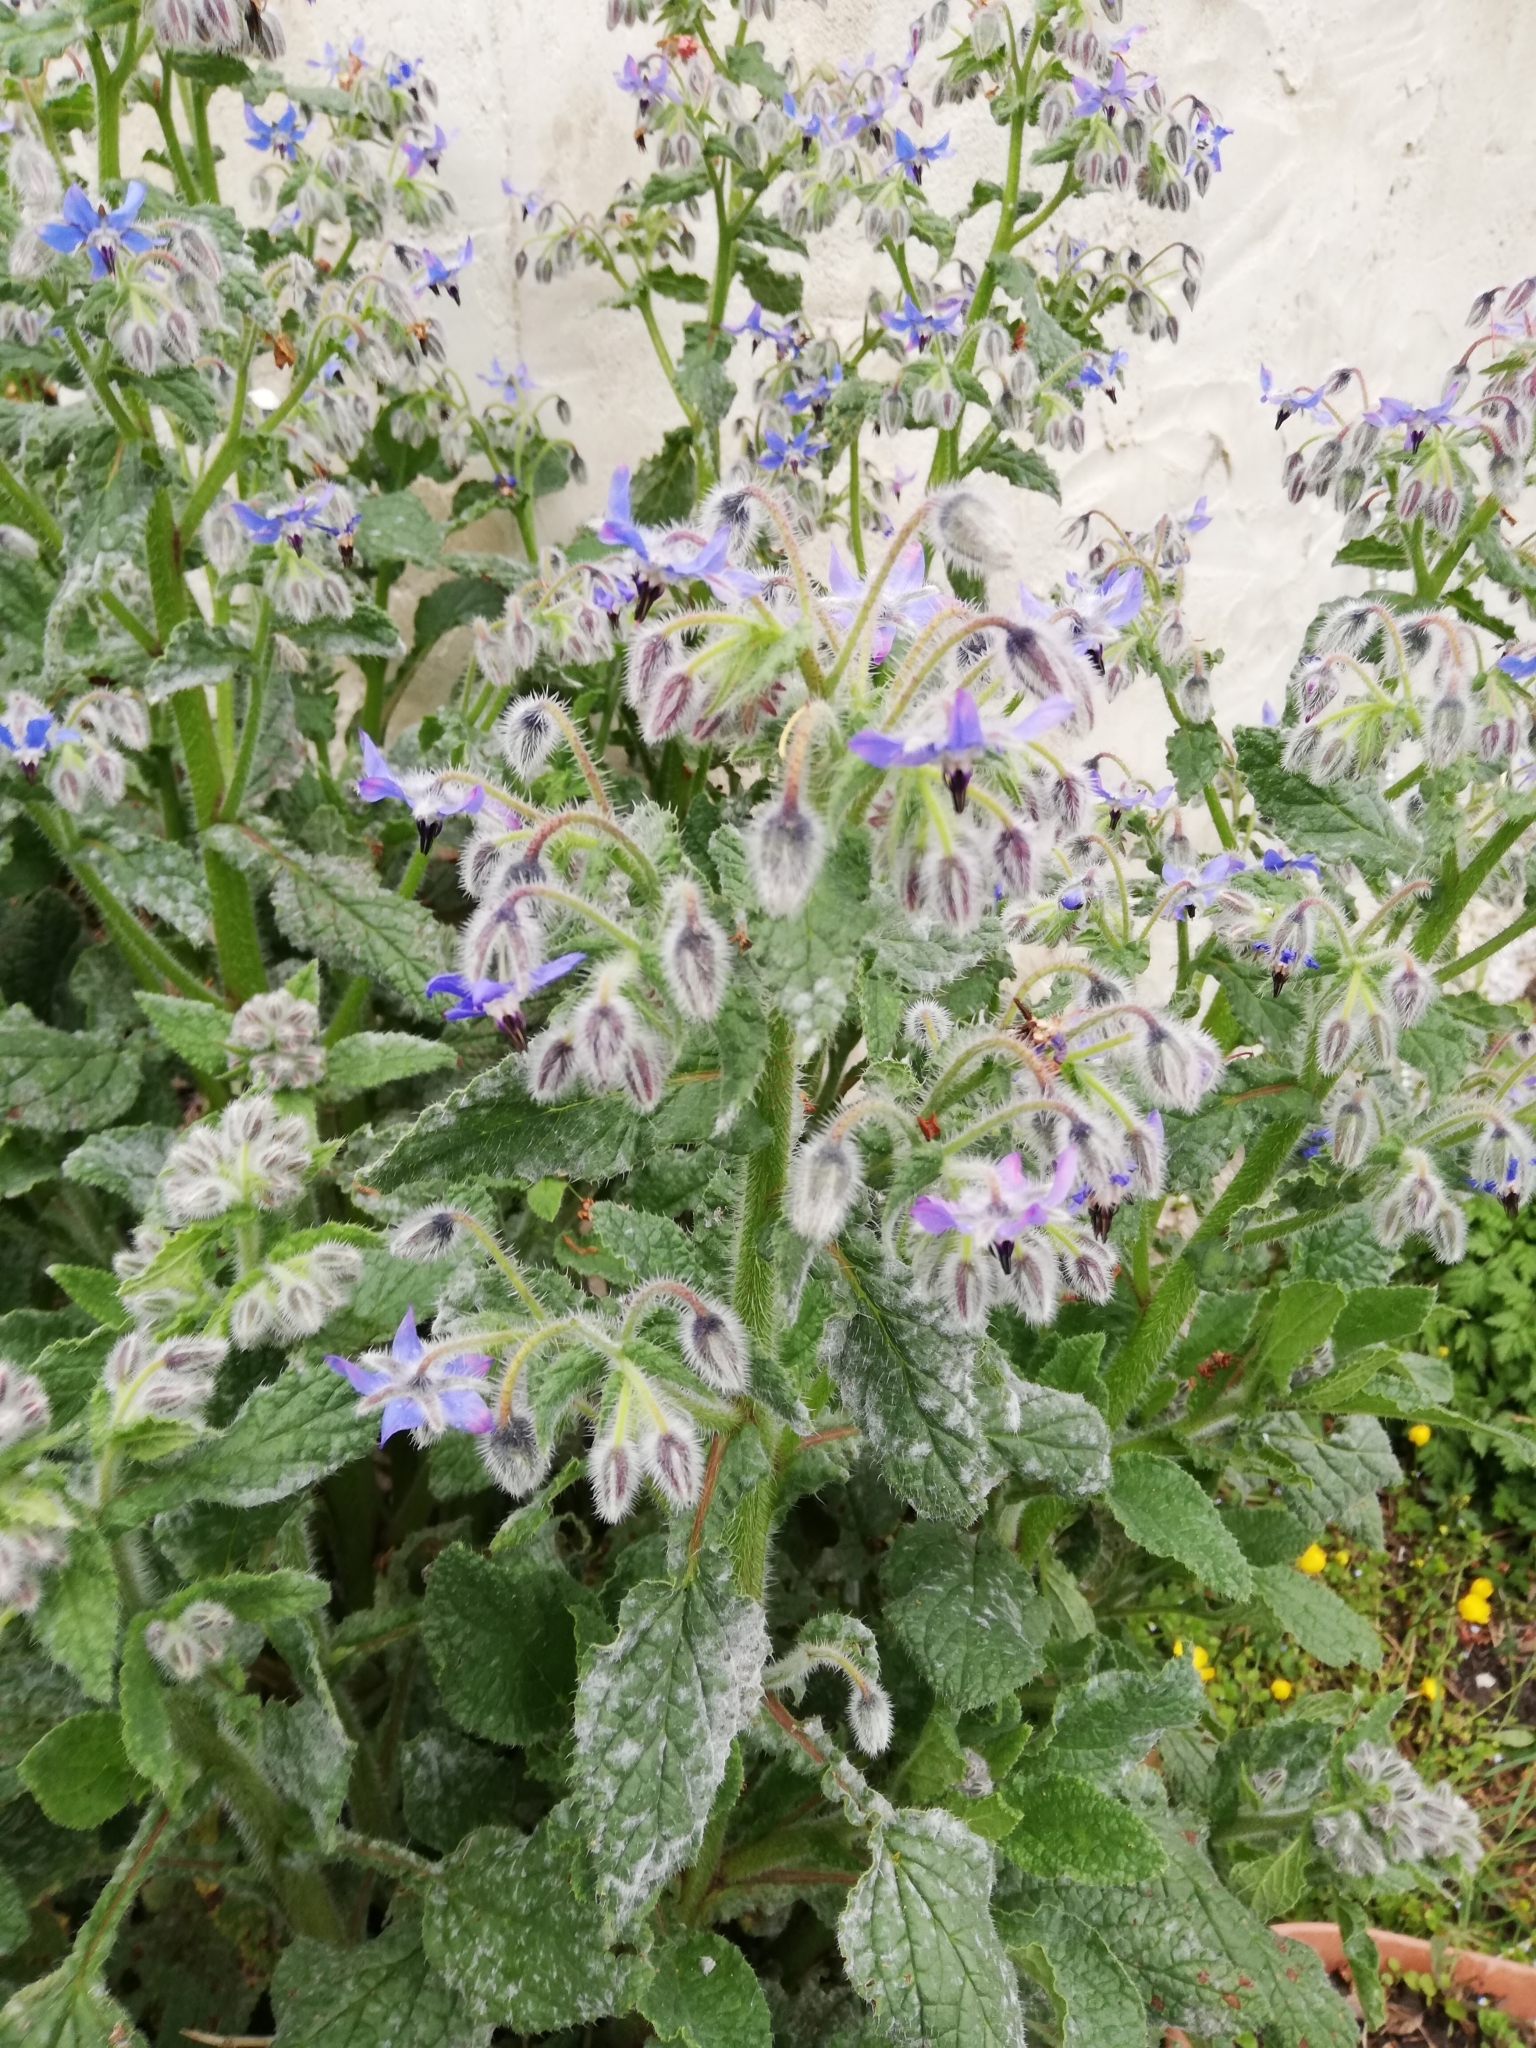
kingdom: Plantae
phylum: Tracheophyta
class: Magnoliopsida
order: Boraginales
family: Boraginaceae
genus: Borago
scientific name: Borago officinalis
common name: Borage
